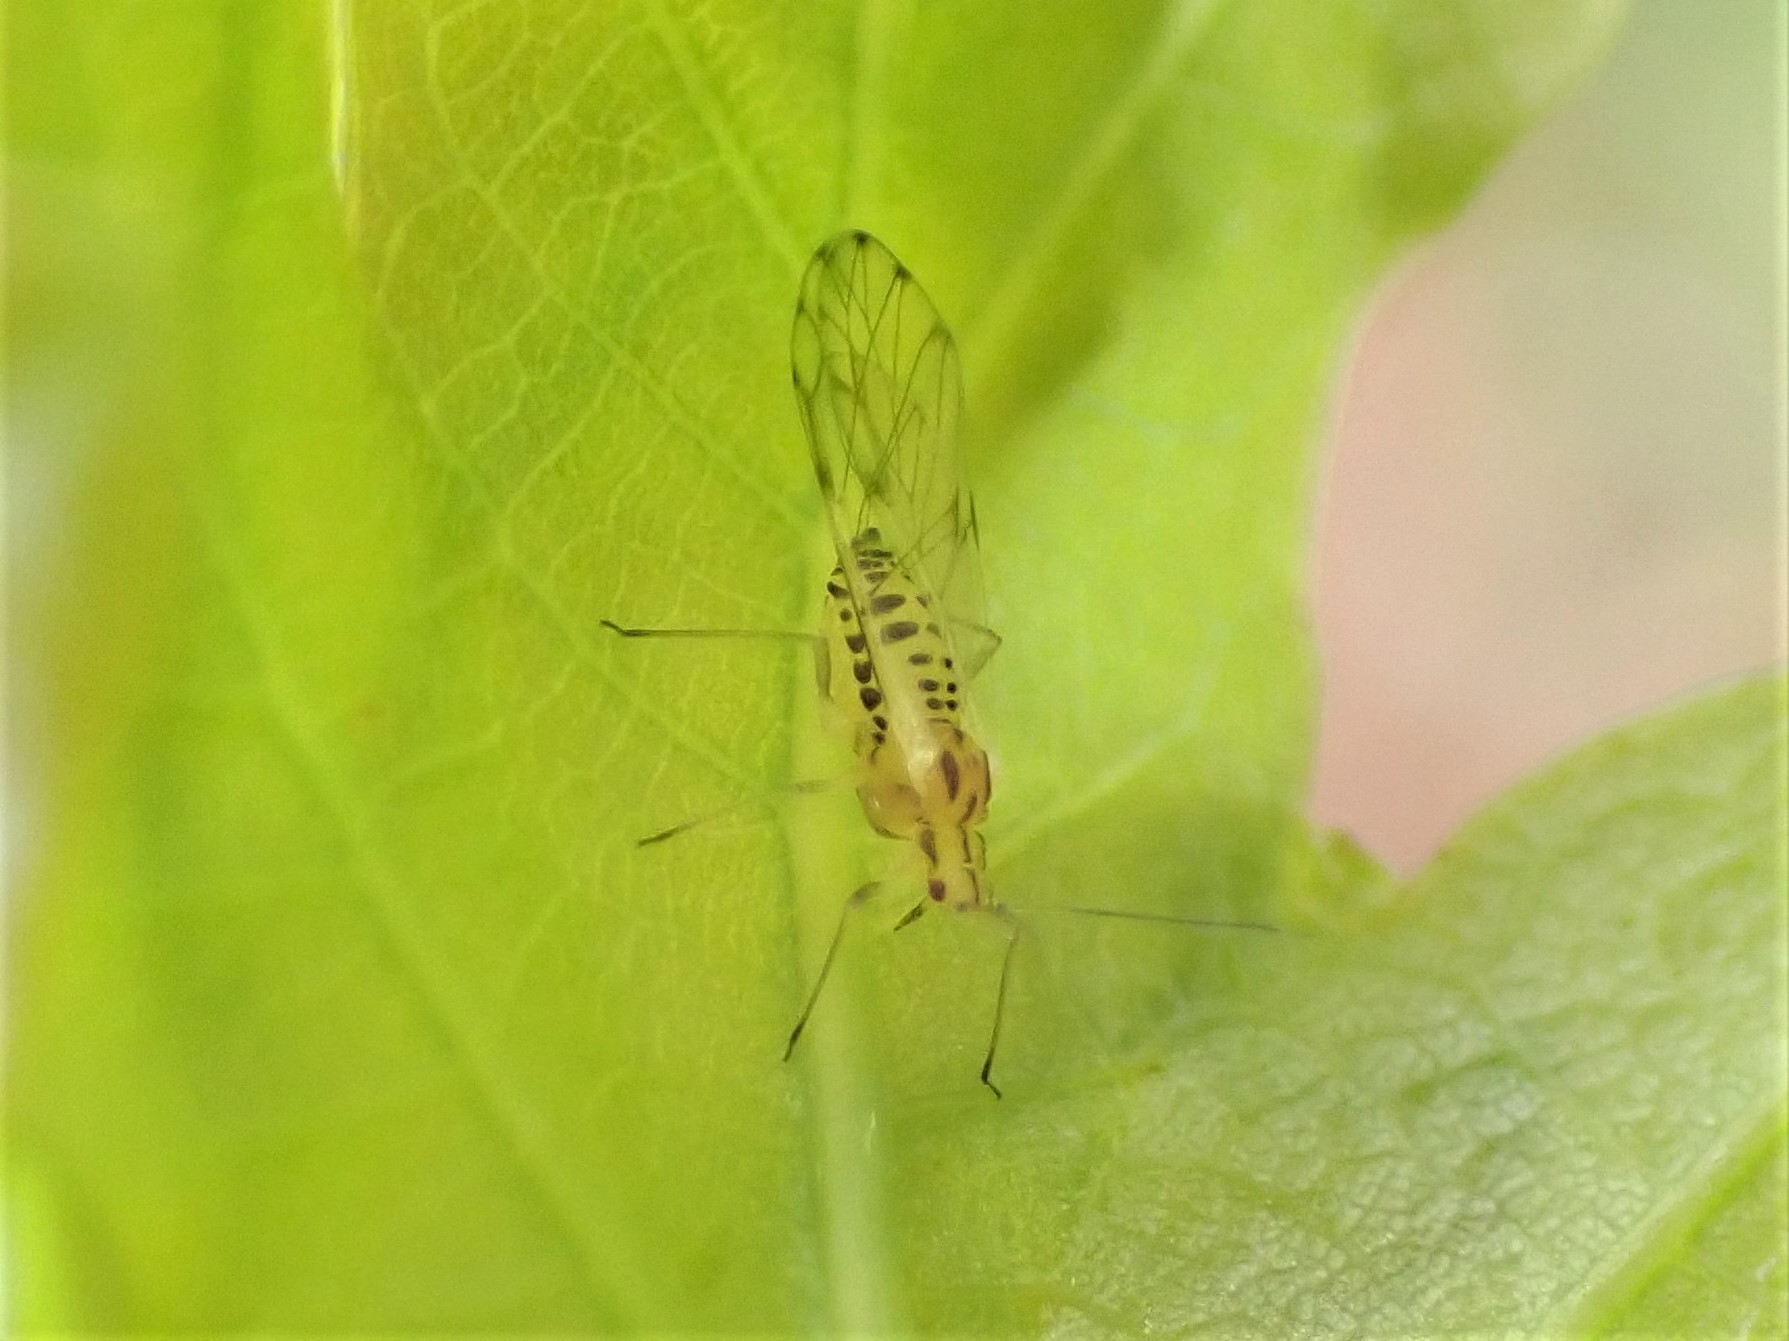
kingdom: Animalia
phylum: Arthropoda
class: Insecta
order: Hemiptera
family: Aphididae
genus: Takecallis
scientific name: Takecallis
